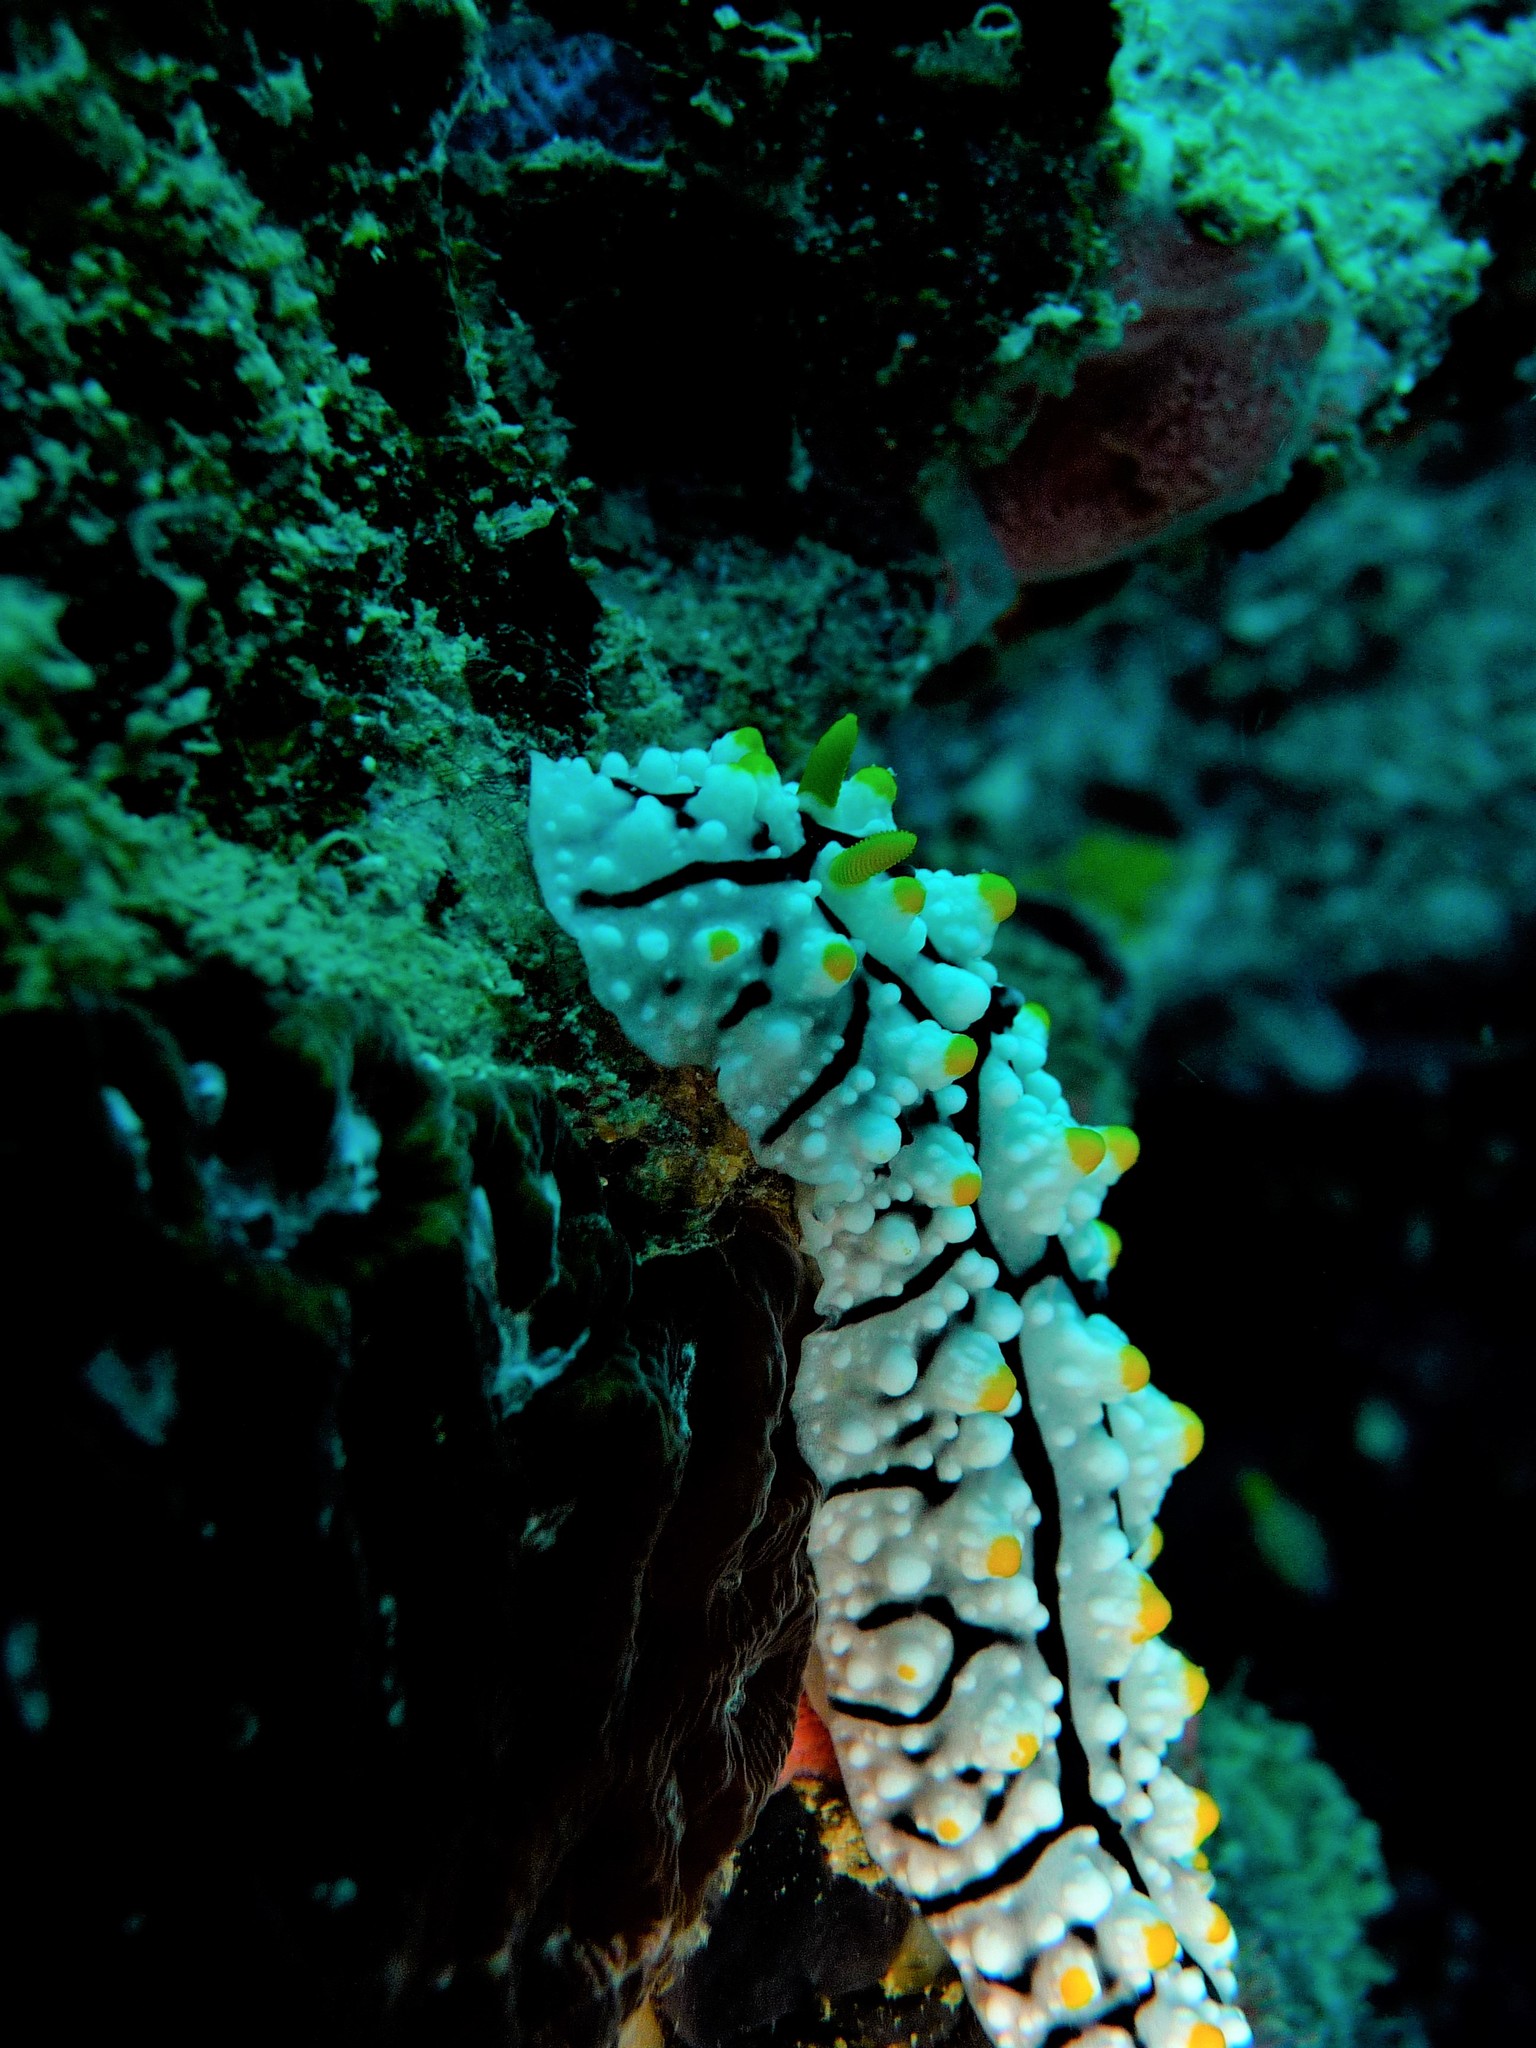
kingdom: Animalia
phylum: Mollusca
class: Gastropoda
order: Nudibranchia
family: Phyllidiidae
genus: Phyllidia
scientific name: Phyllidia elegans
